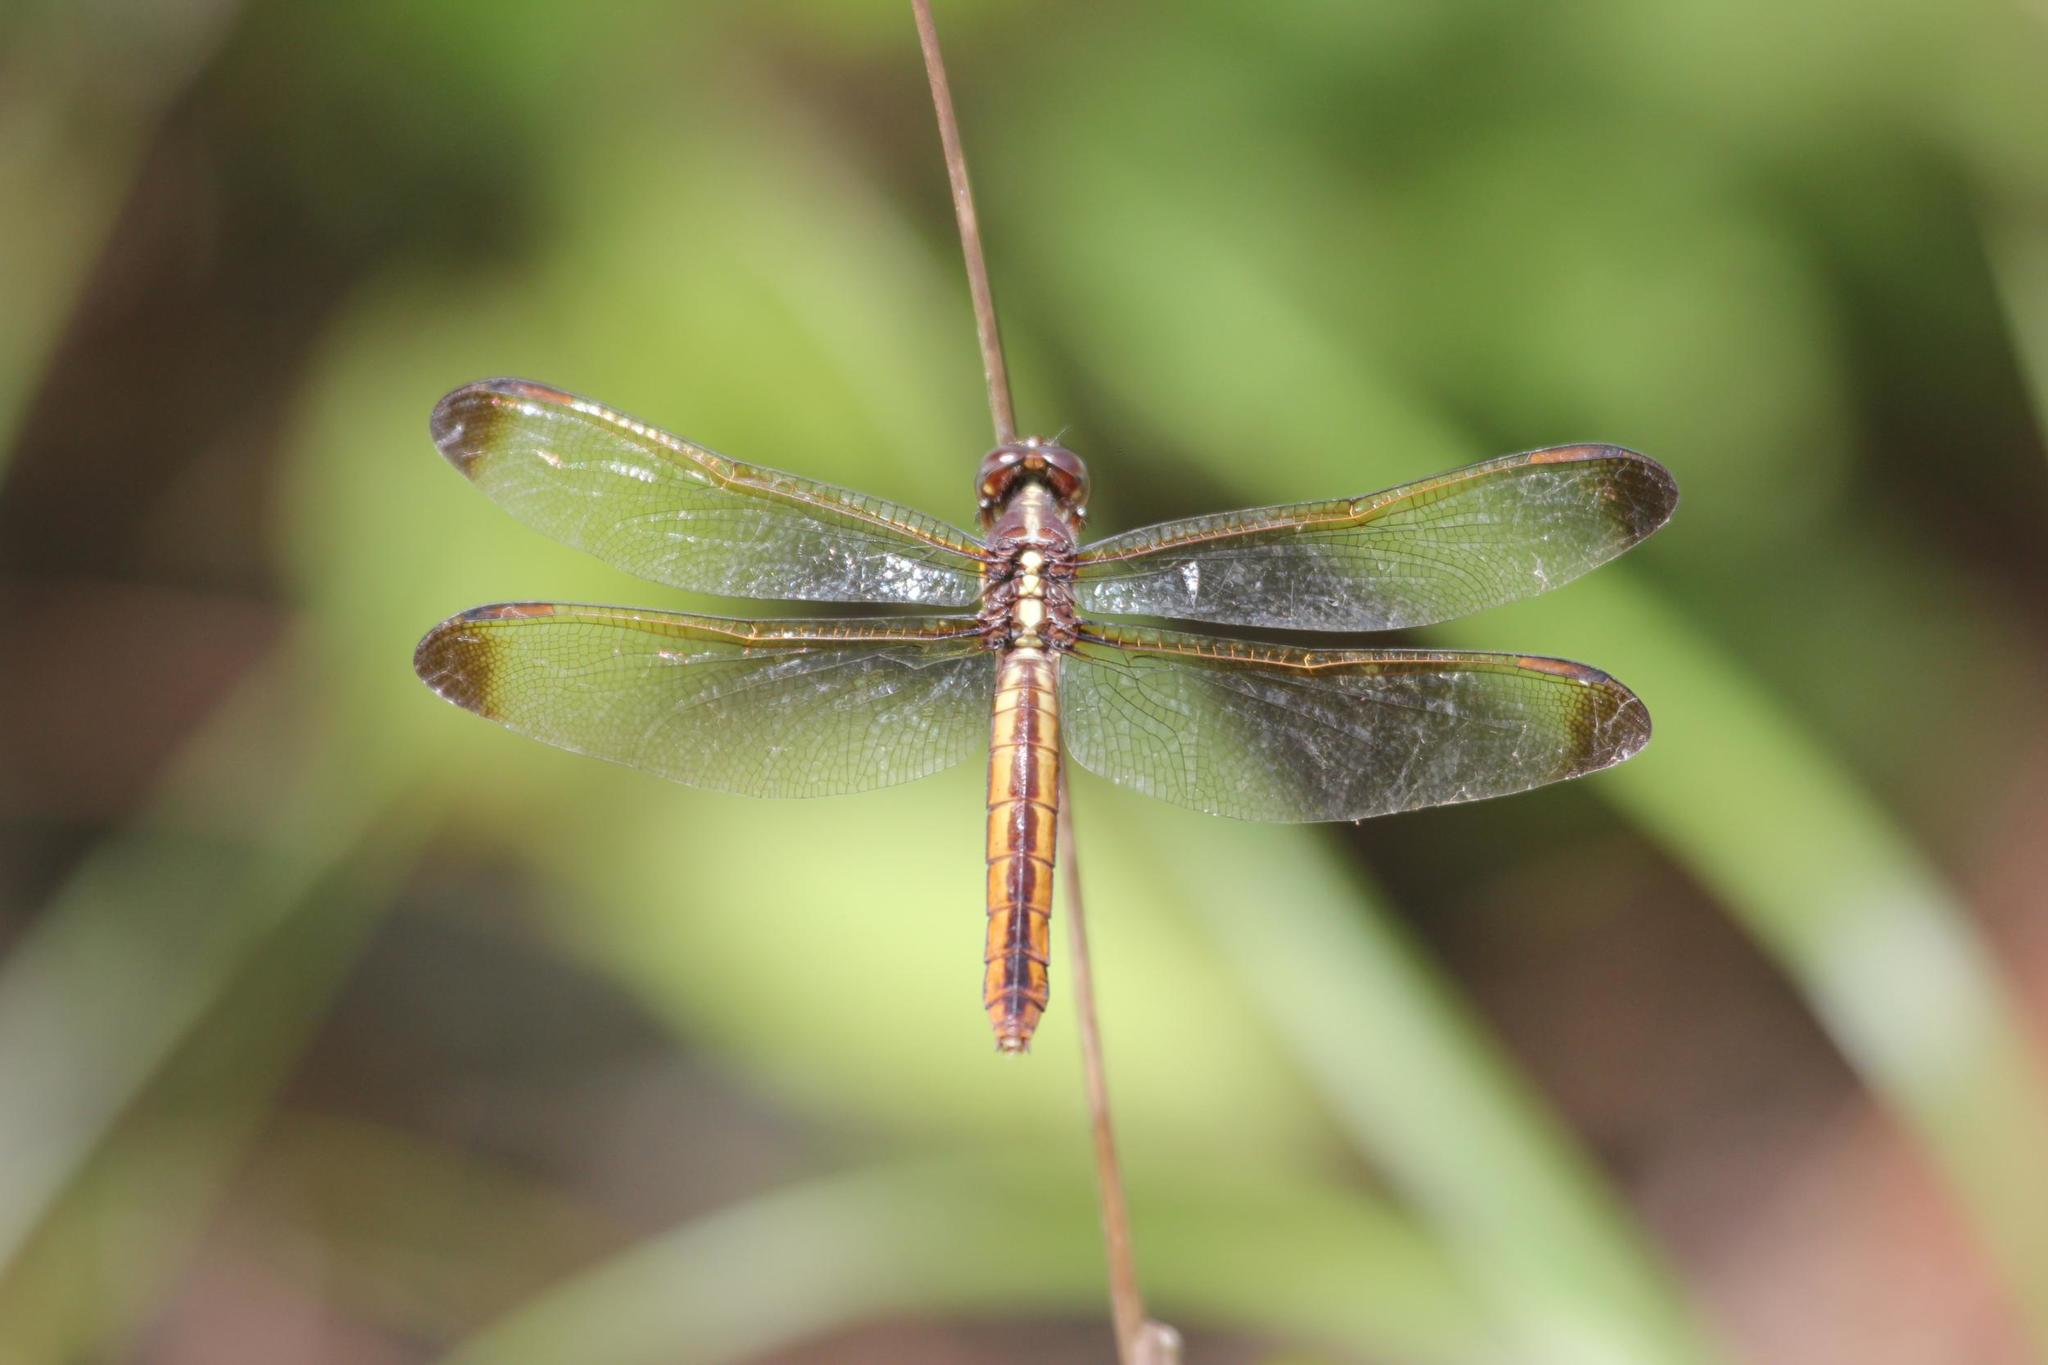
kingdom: Animalia
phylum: Arthropoda
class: Insecta
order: Odonata
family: Libellulidae
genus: Libellula
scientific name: Libellula flavida
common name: Yellow-sided skimmer
